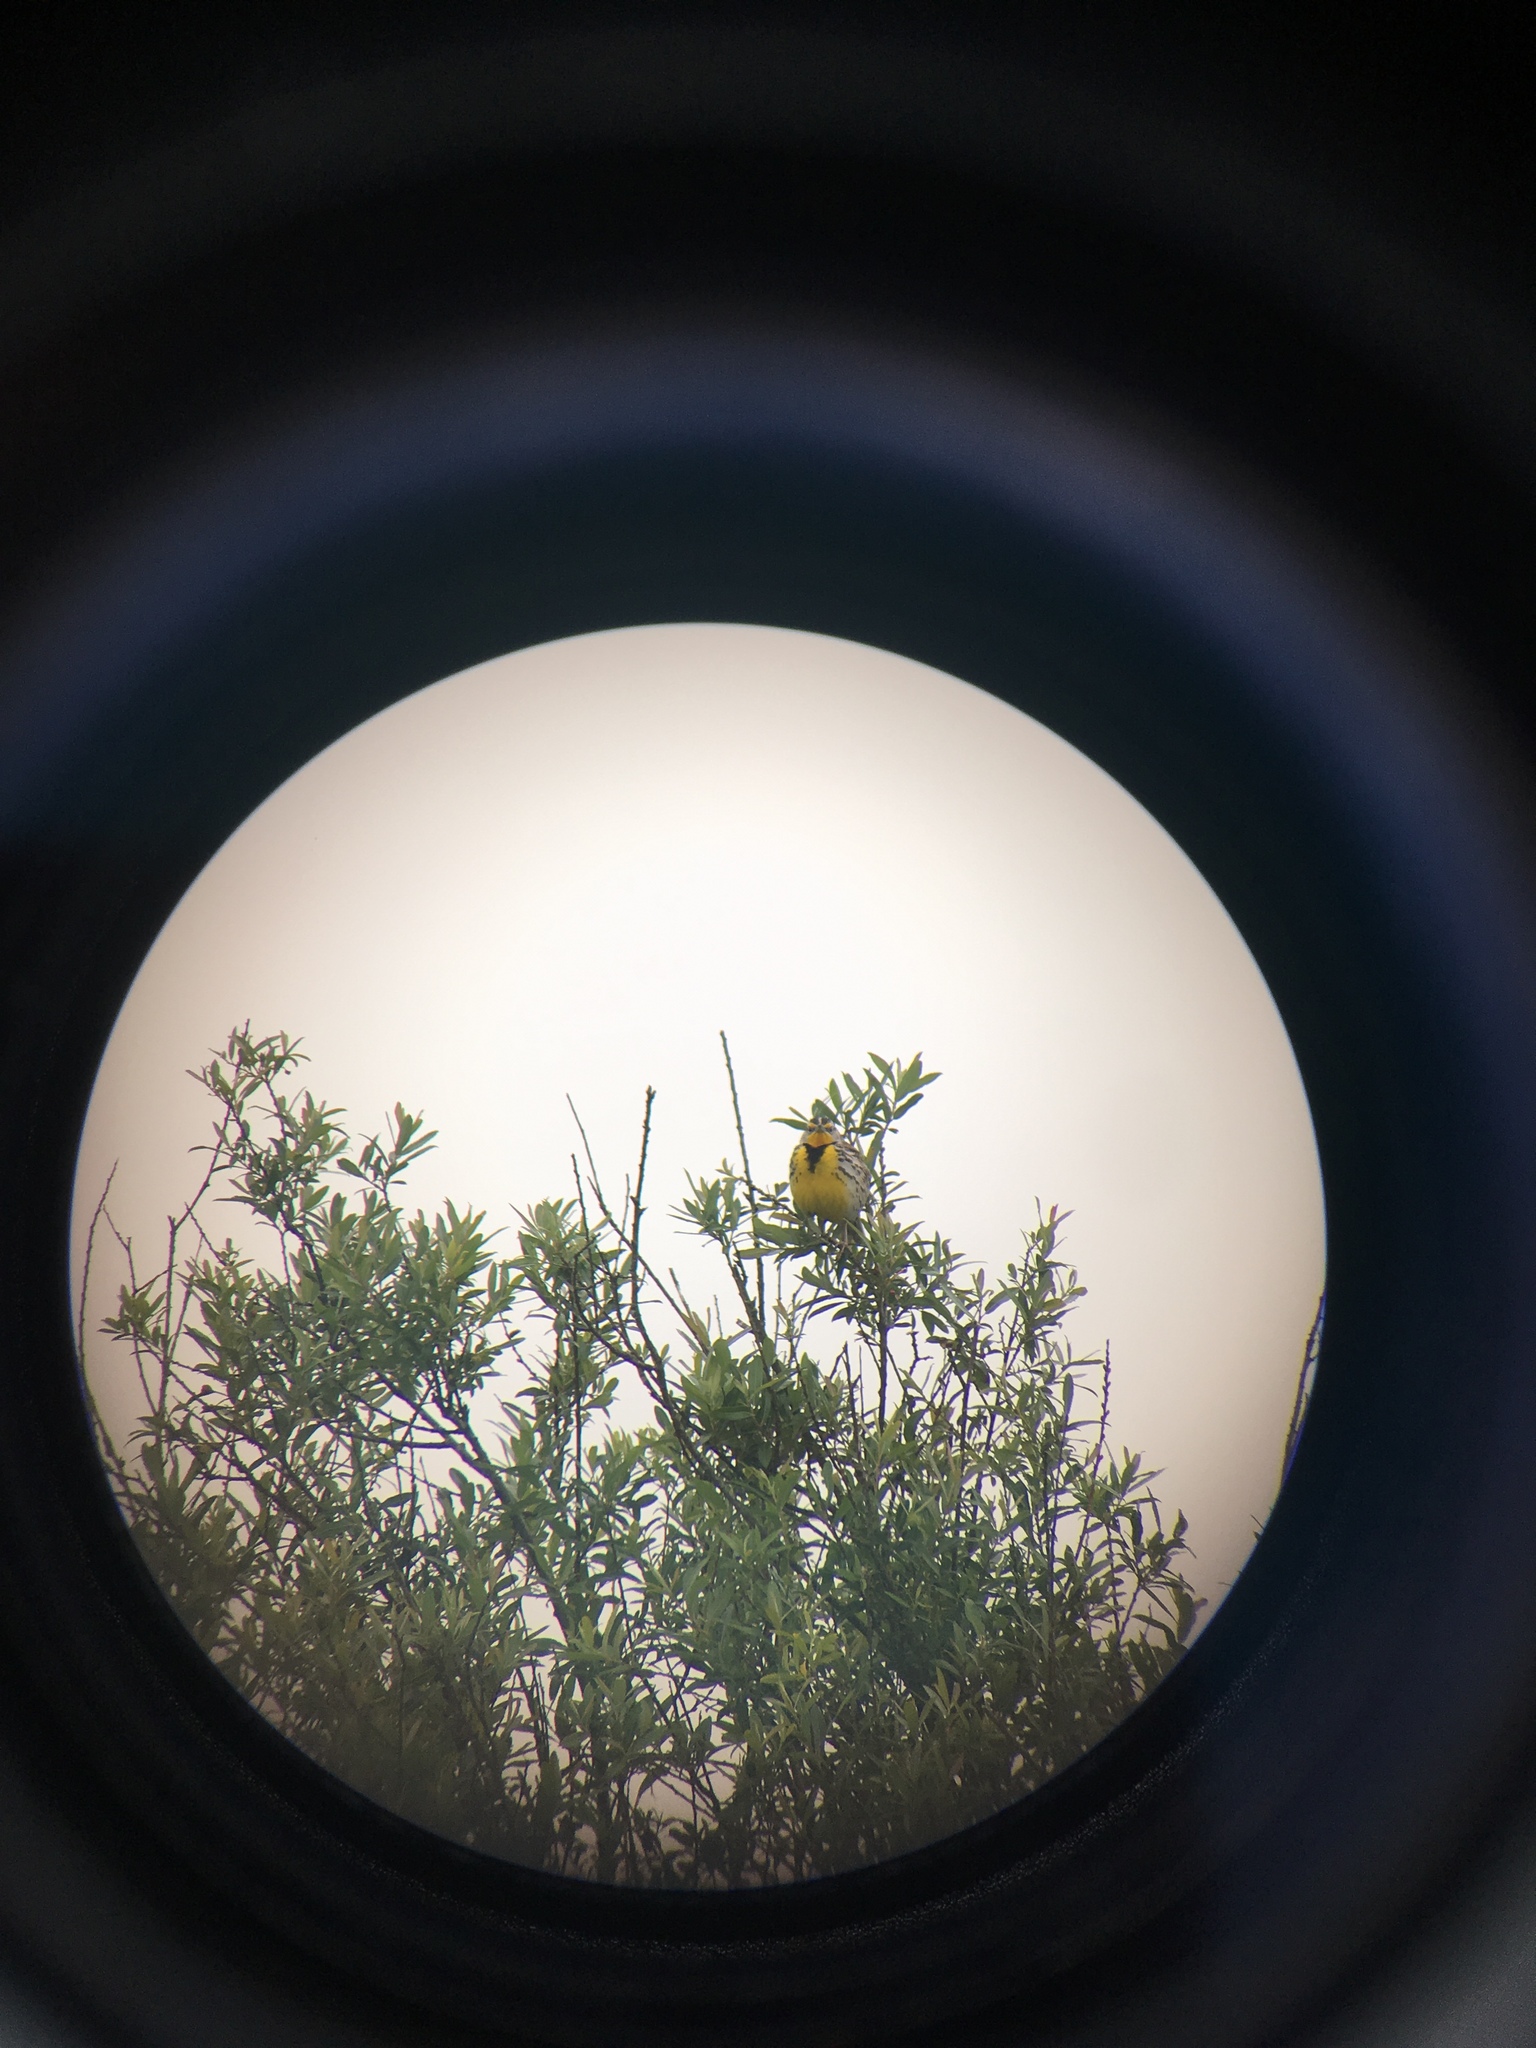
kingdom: Animalia
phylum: Chordata
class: Aves
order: Passeriformes
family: Icteridae
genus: Sturnella
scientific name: Sturnella neglecta
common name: Western meadowlark
